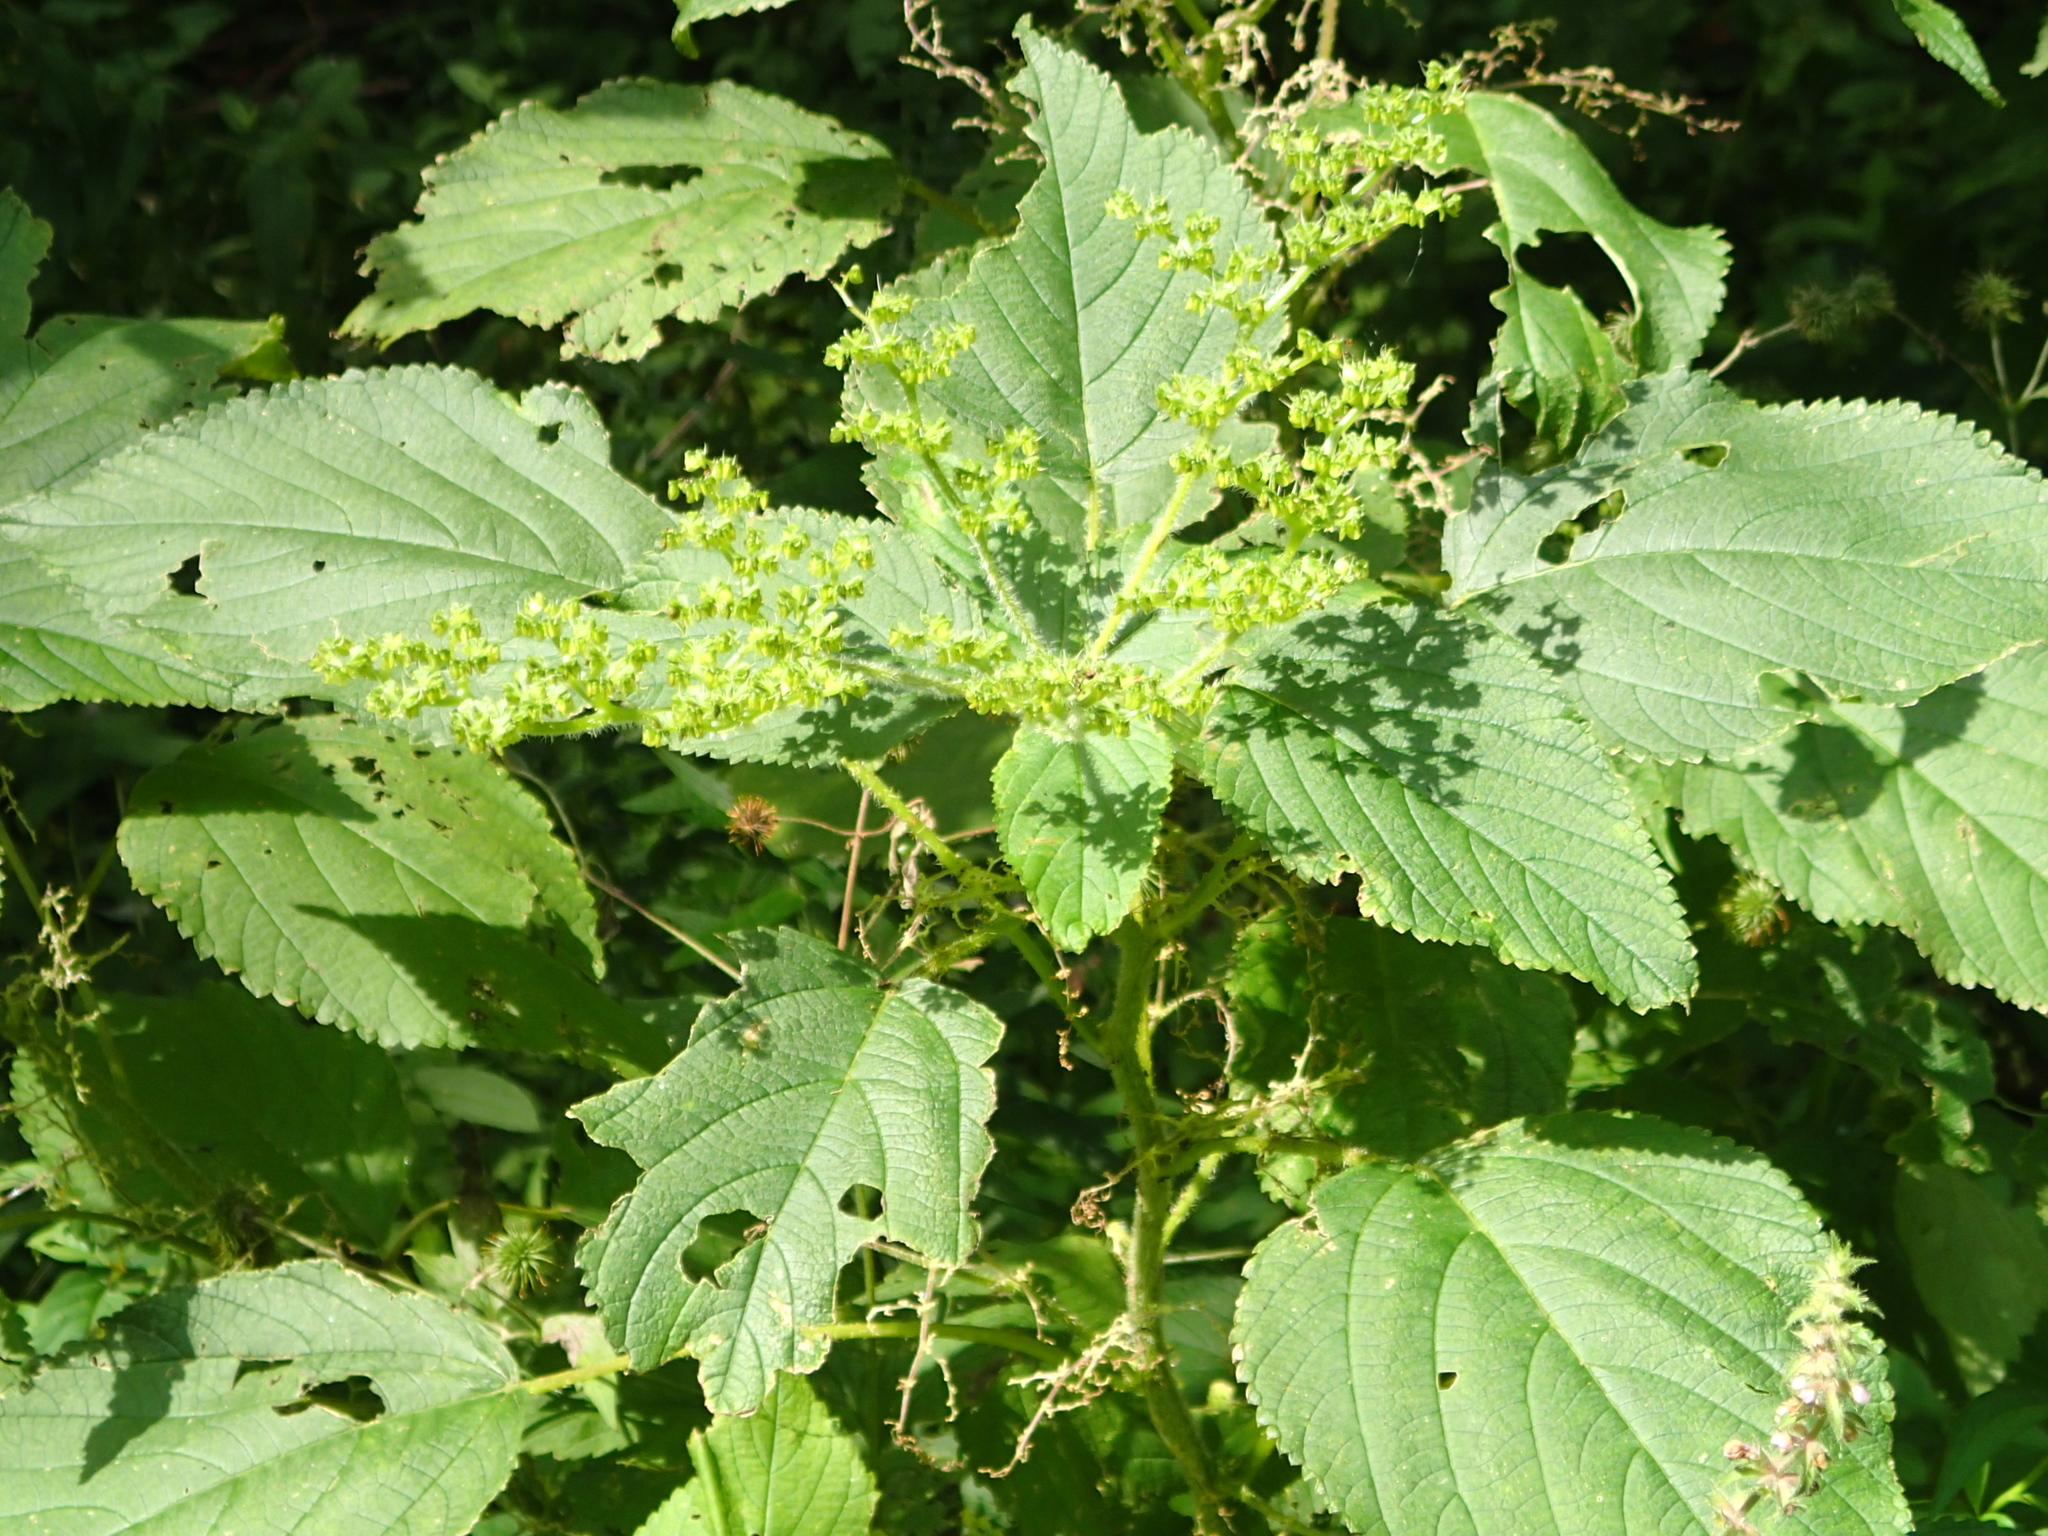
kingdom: Plantae
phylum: Tracheophyta
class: Magnoliopsida
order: Rosales
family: Urticaceae
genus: Laportea
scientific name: Laportea canadensis
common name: Canada nettle
